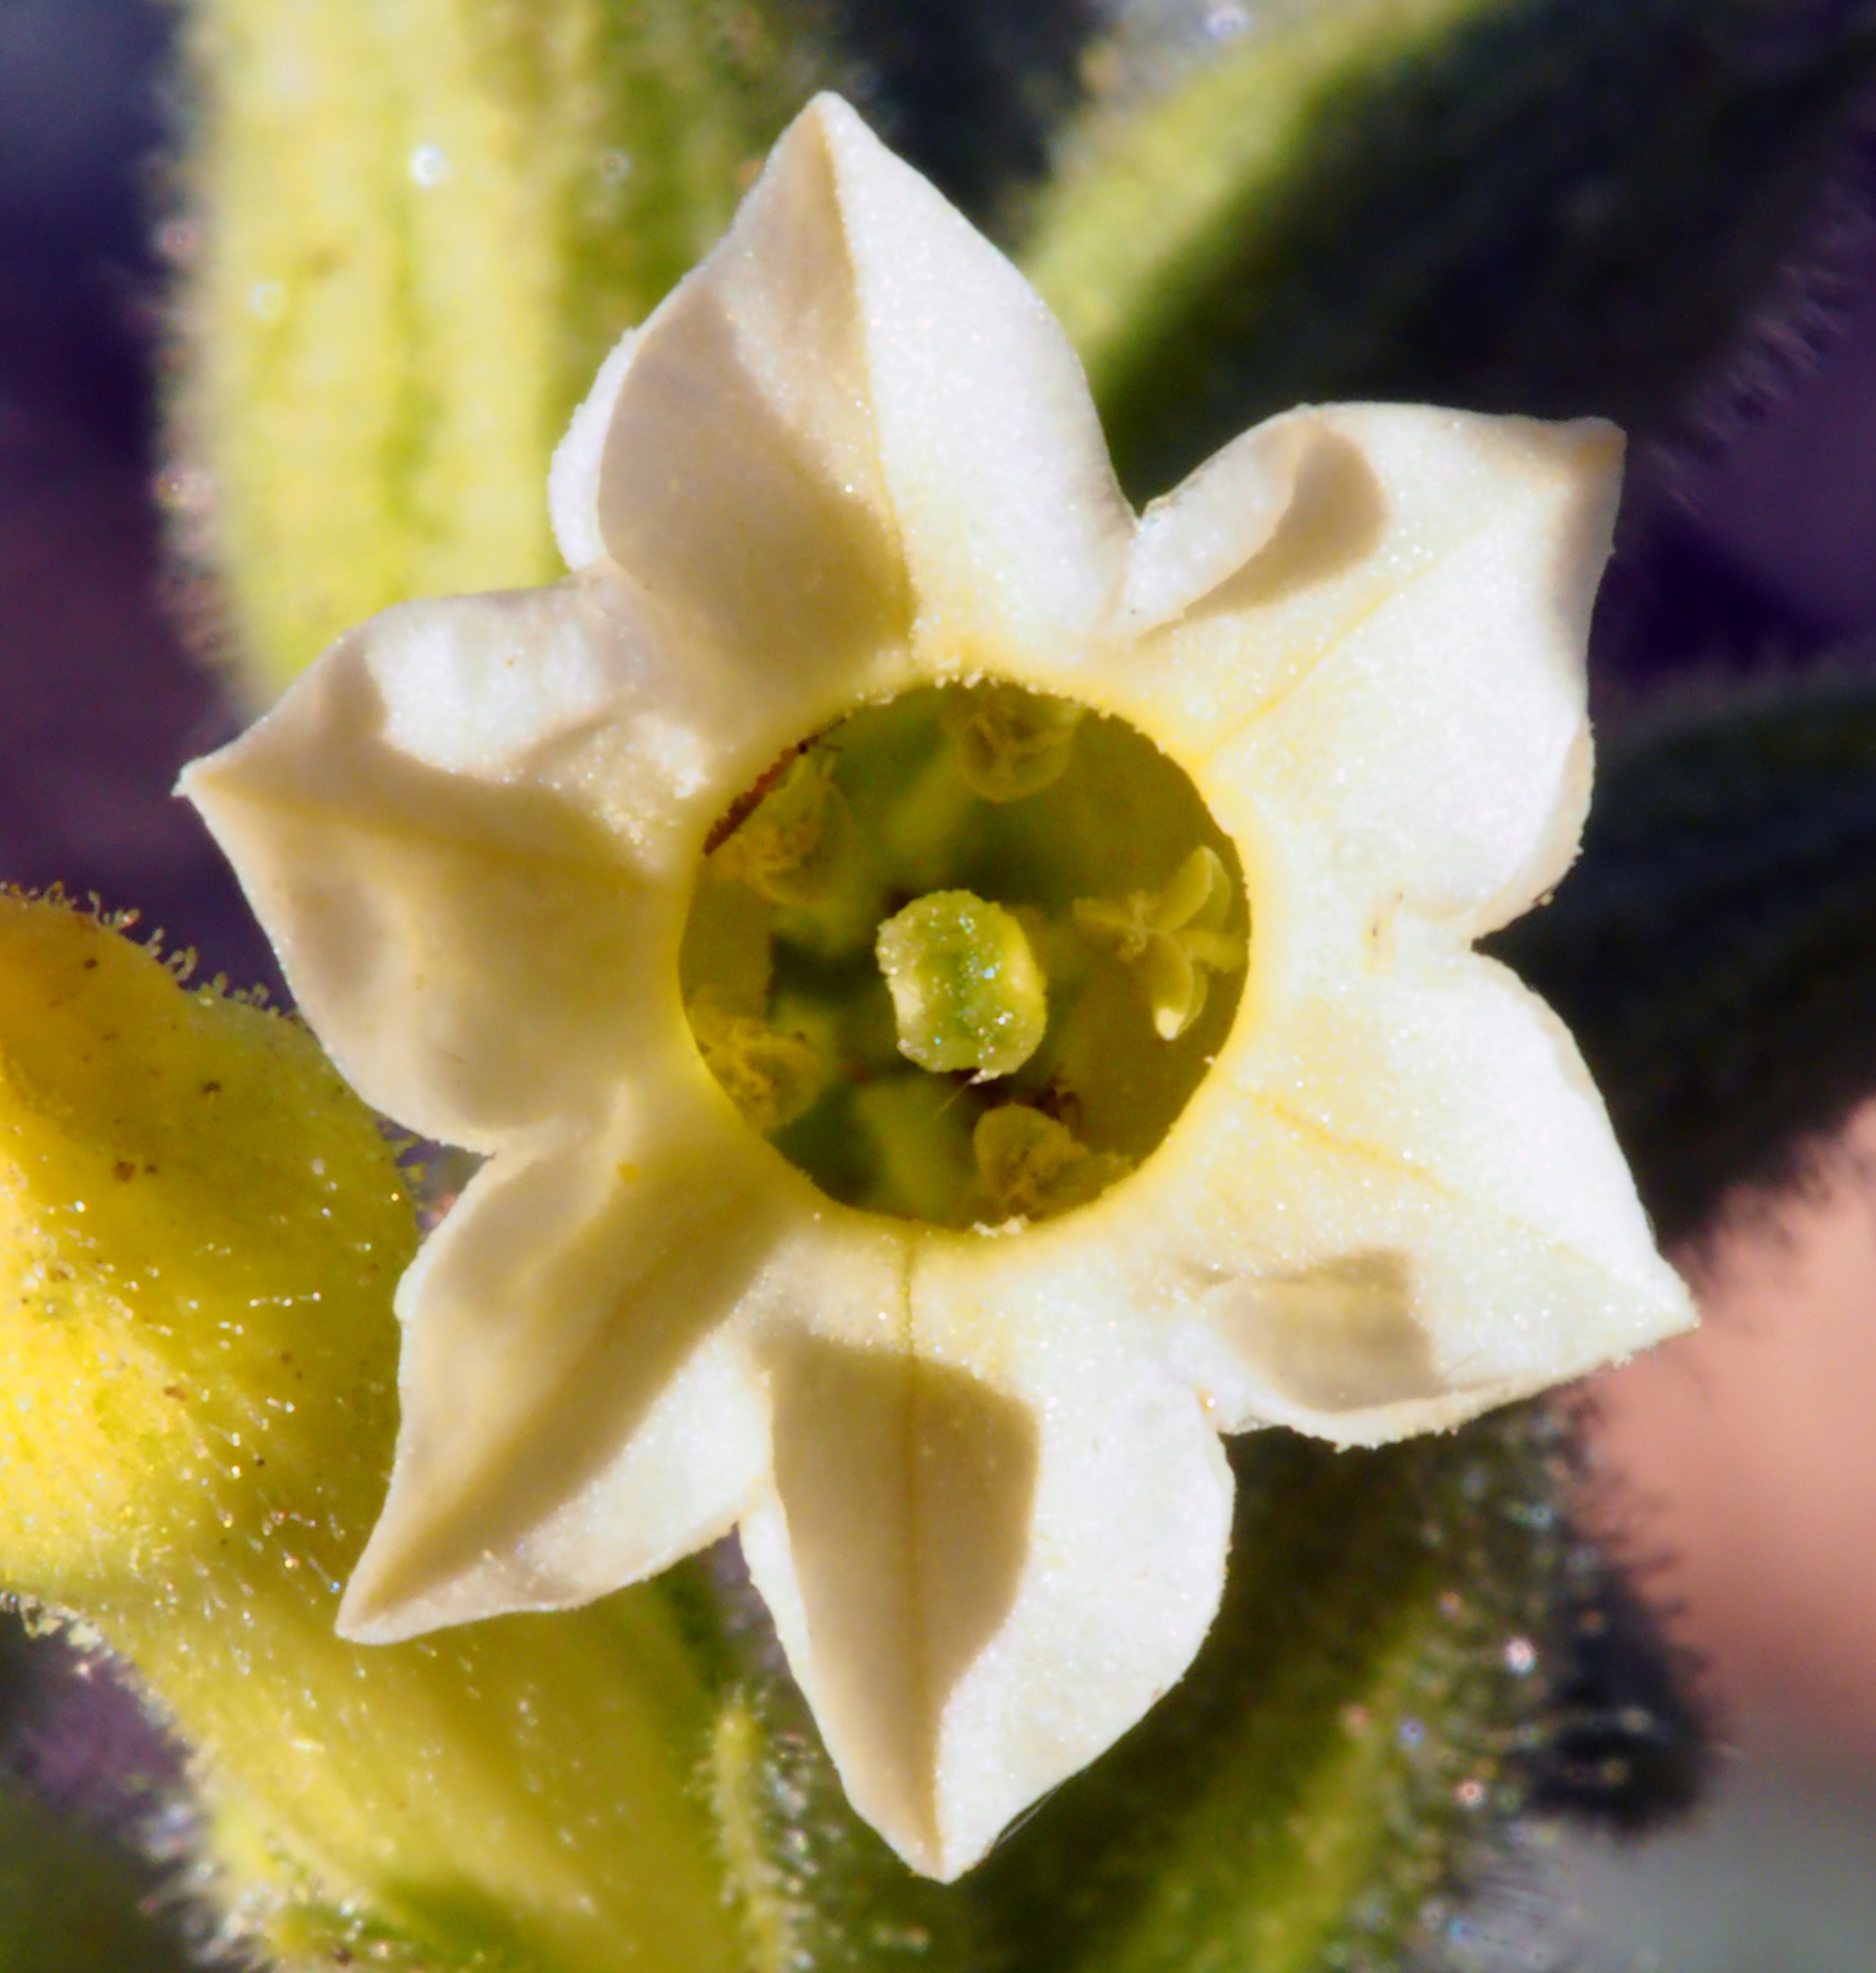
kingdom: Plantae
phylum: Tracheophyta
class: Magnoliopsida
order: Solanales
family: Solanaceae
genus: Nicotiana
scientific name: Nicotiana obtusifolia
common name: Desert tobacco
